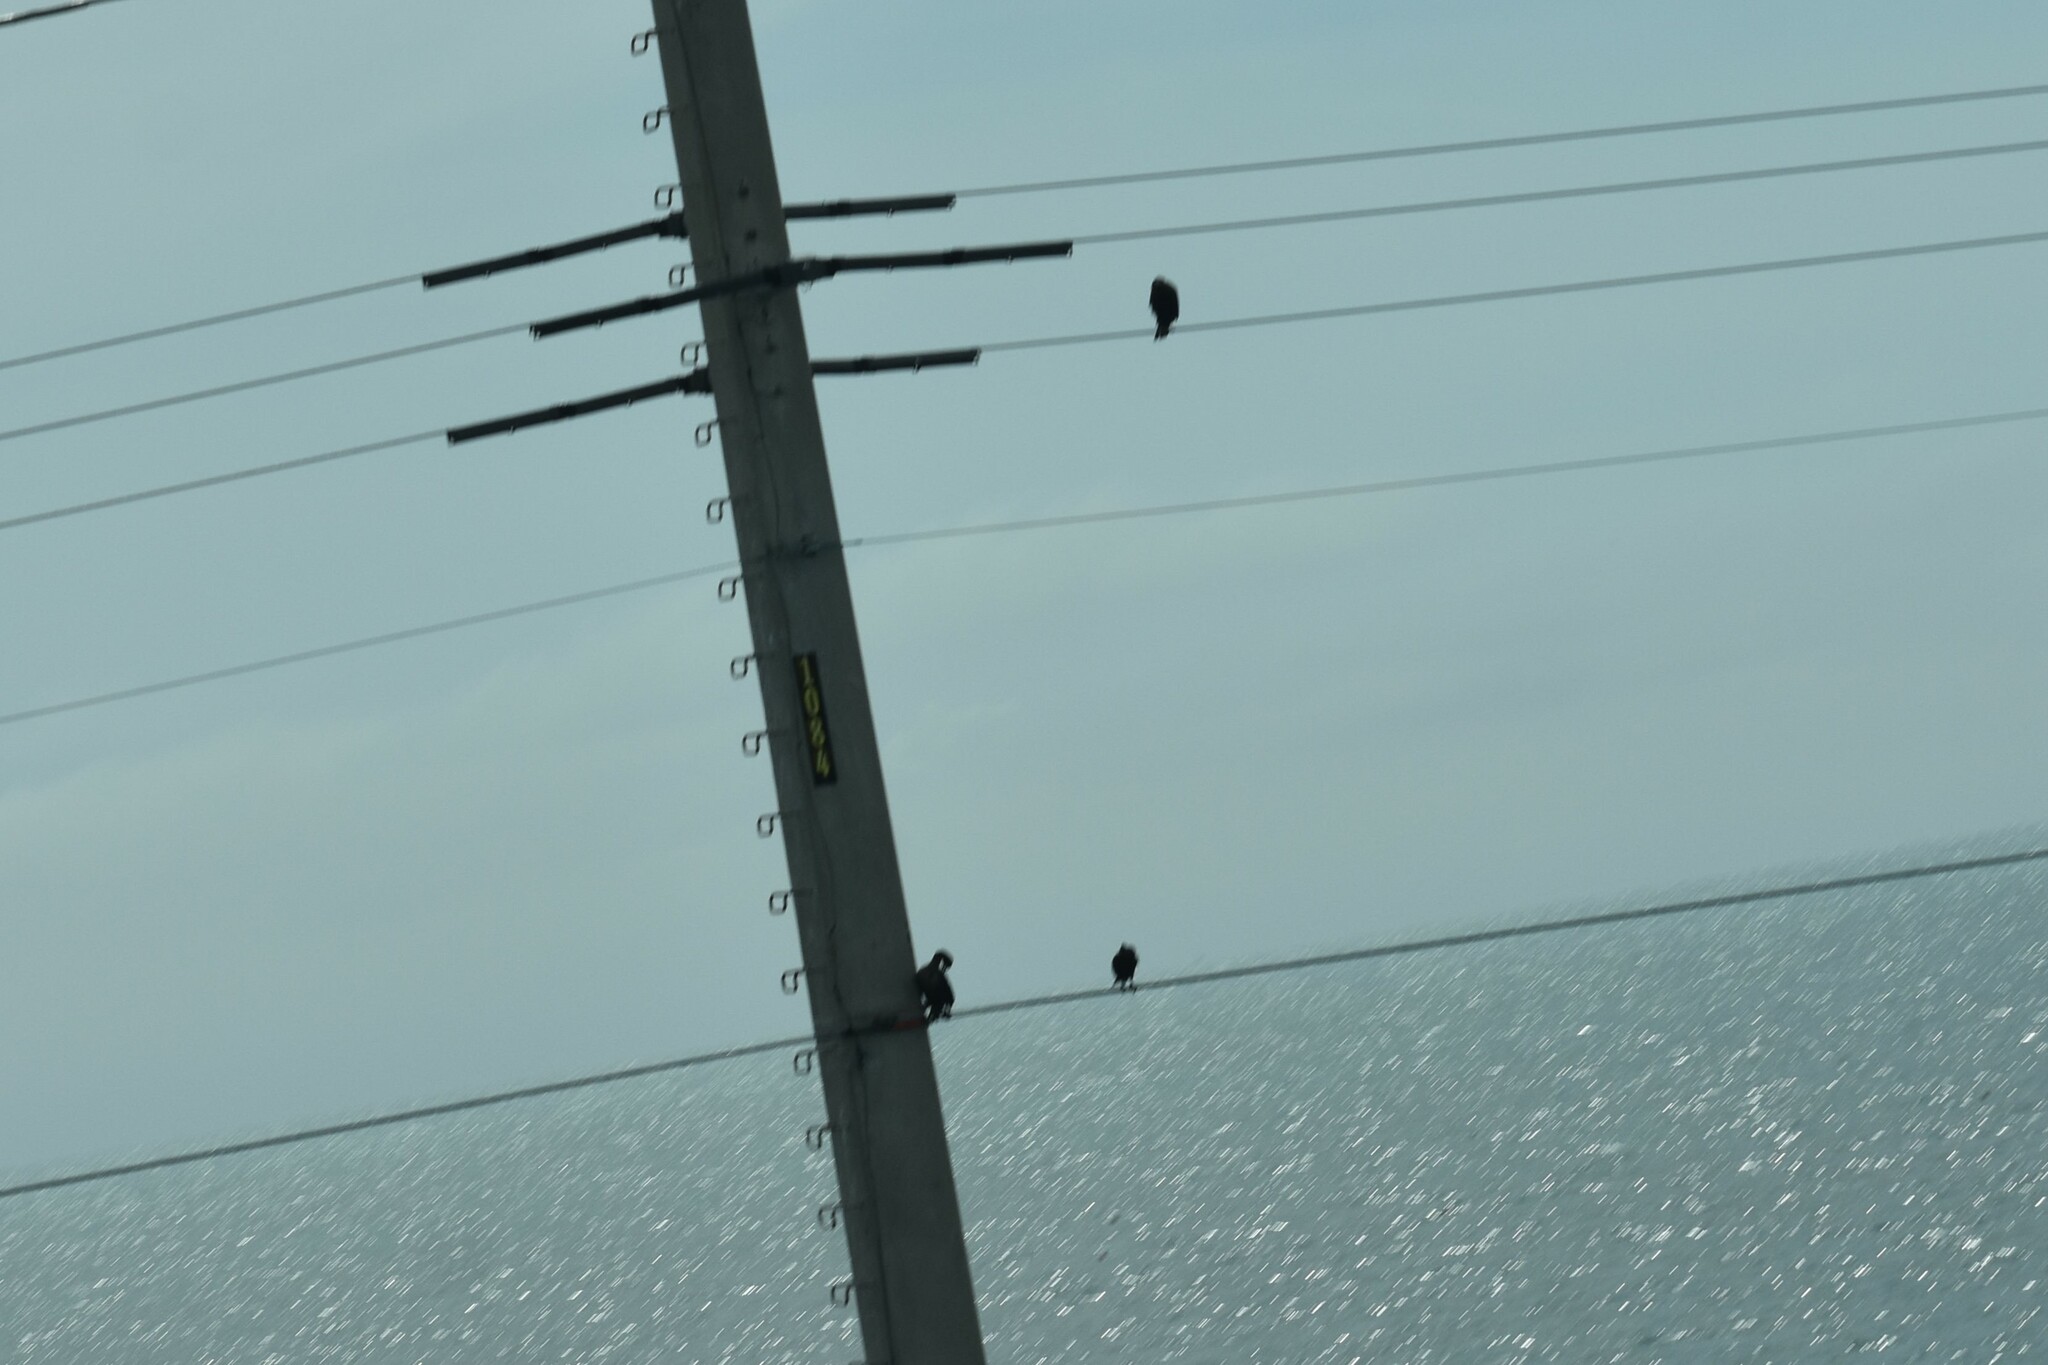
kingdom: Animalia
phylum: Chordata
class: Aves
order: Suliformes
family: Phalacrocoracidae
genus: Phalacrocorax
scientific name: Phalacrocorax auritus
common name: Double-crested cormorant
